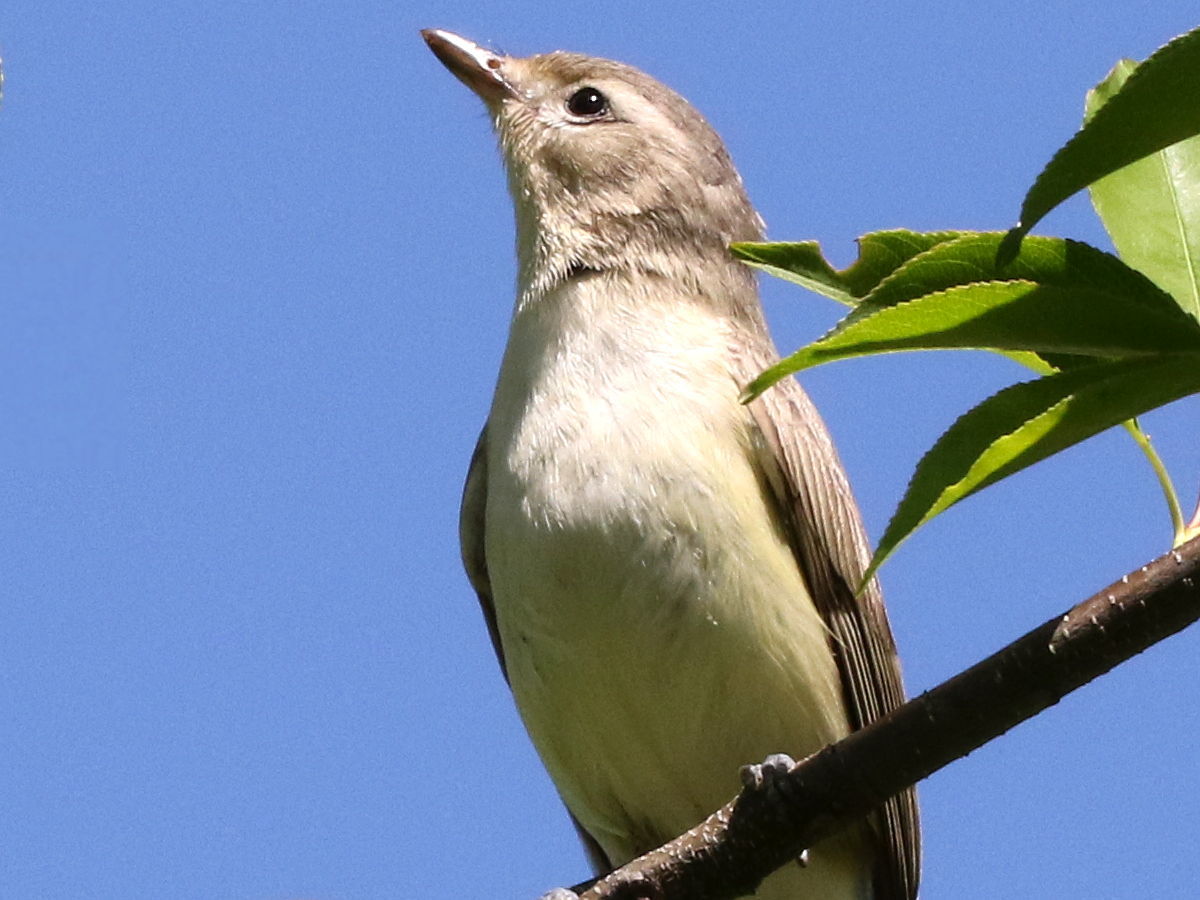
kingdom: Animalia
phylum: Chordata
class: Aves
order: Passeriformes
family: Vireonidae
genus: Vireo
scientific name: Vireo gilvus
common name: Warbling vireo
